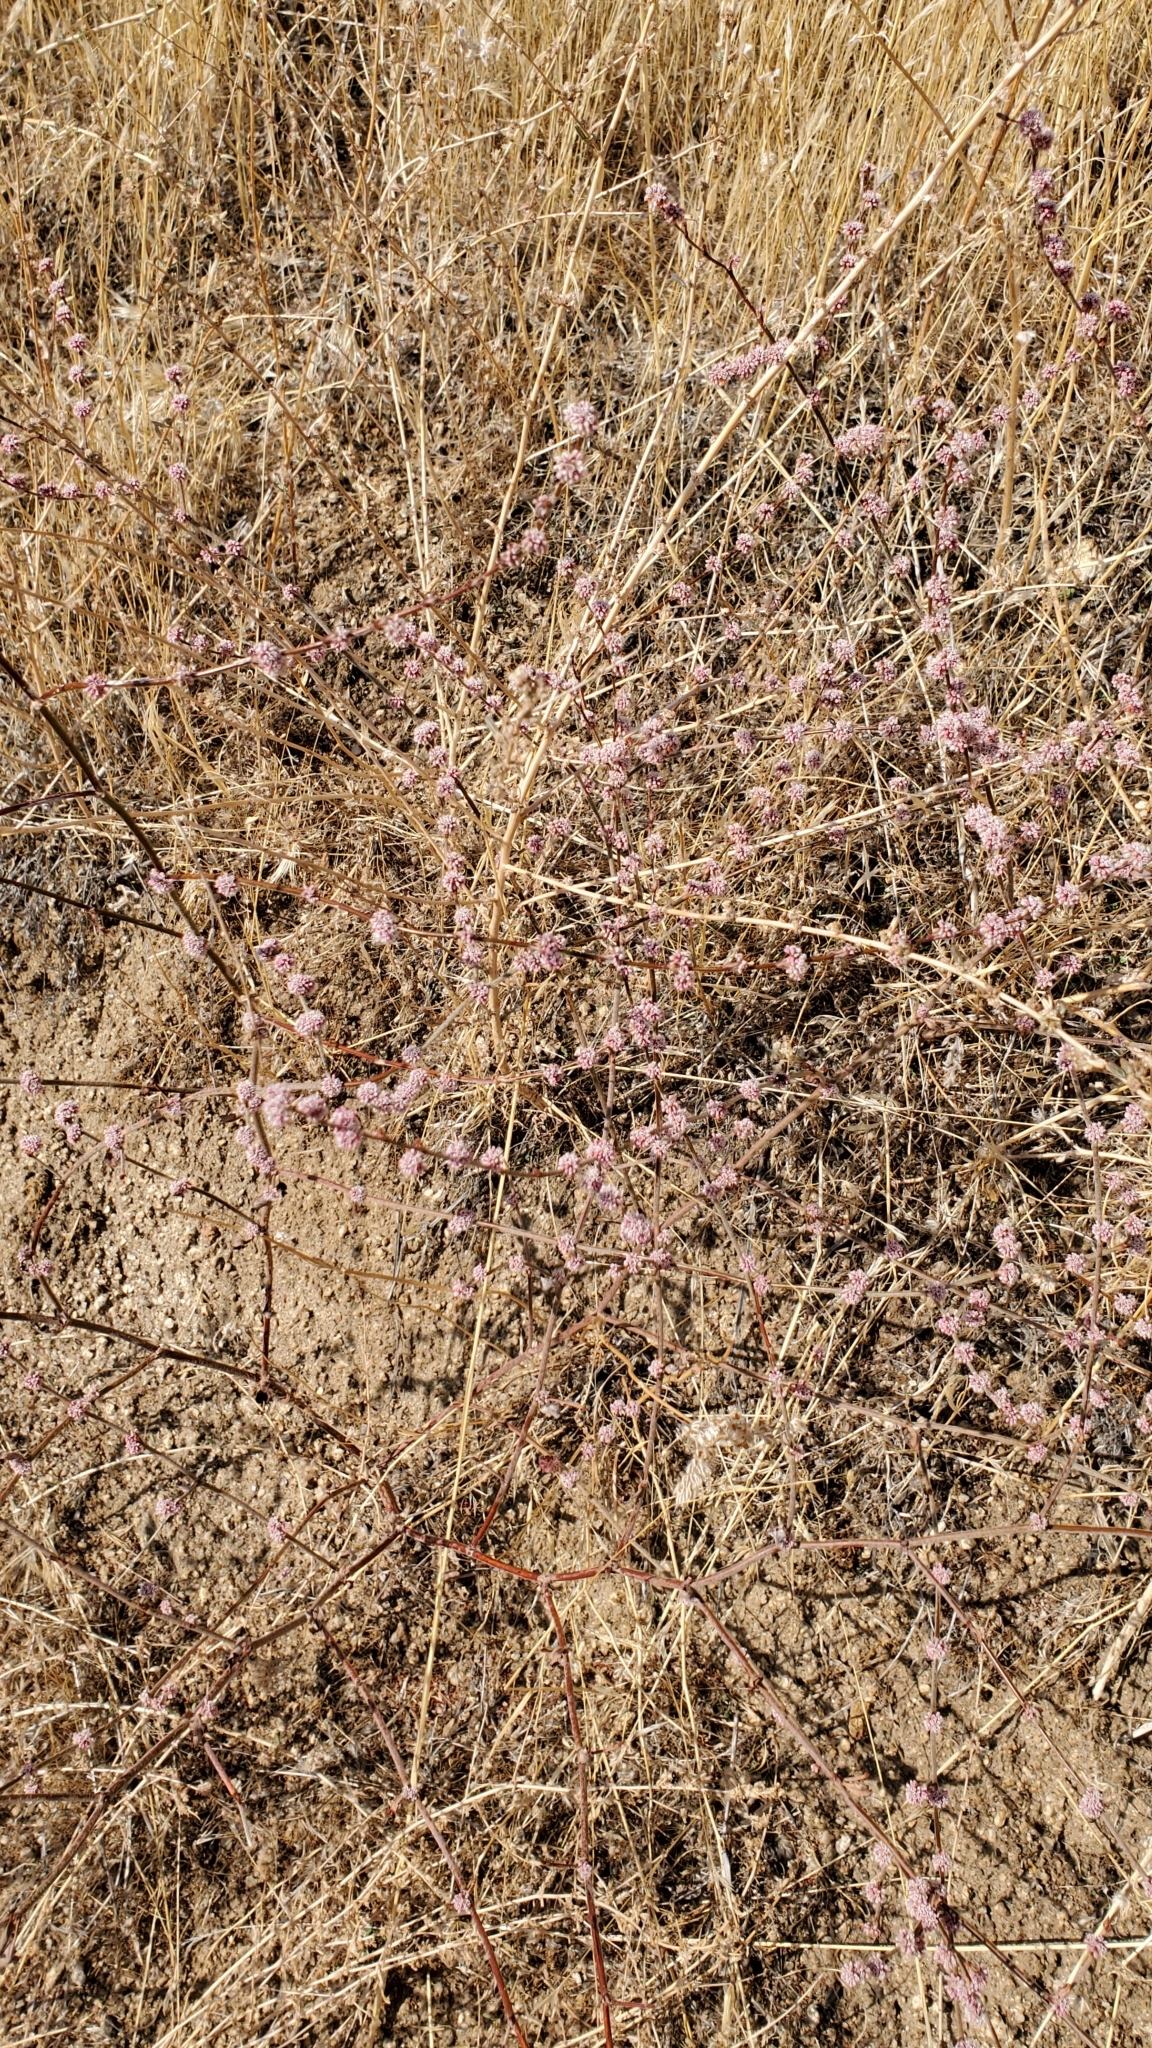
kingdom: Plantae
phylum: Tracheophyta
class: Magnoliopsida
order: Caryophyllales
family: Polygonaceae
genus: Eriogonum
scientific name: Eriogonum elongatum
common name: Long-stem wild buckwheat
